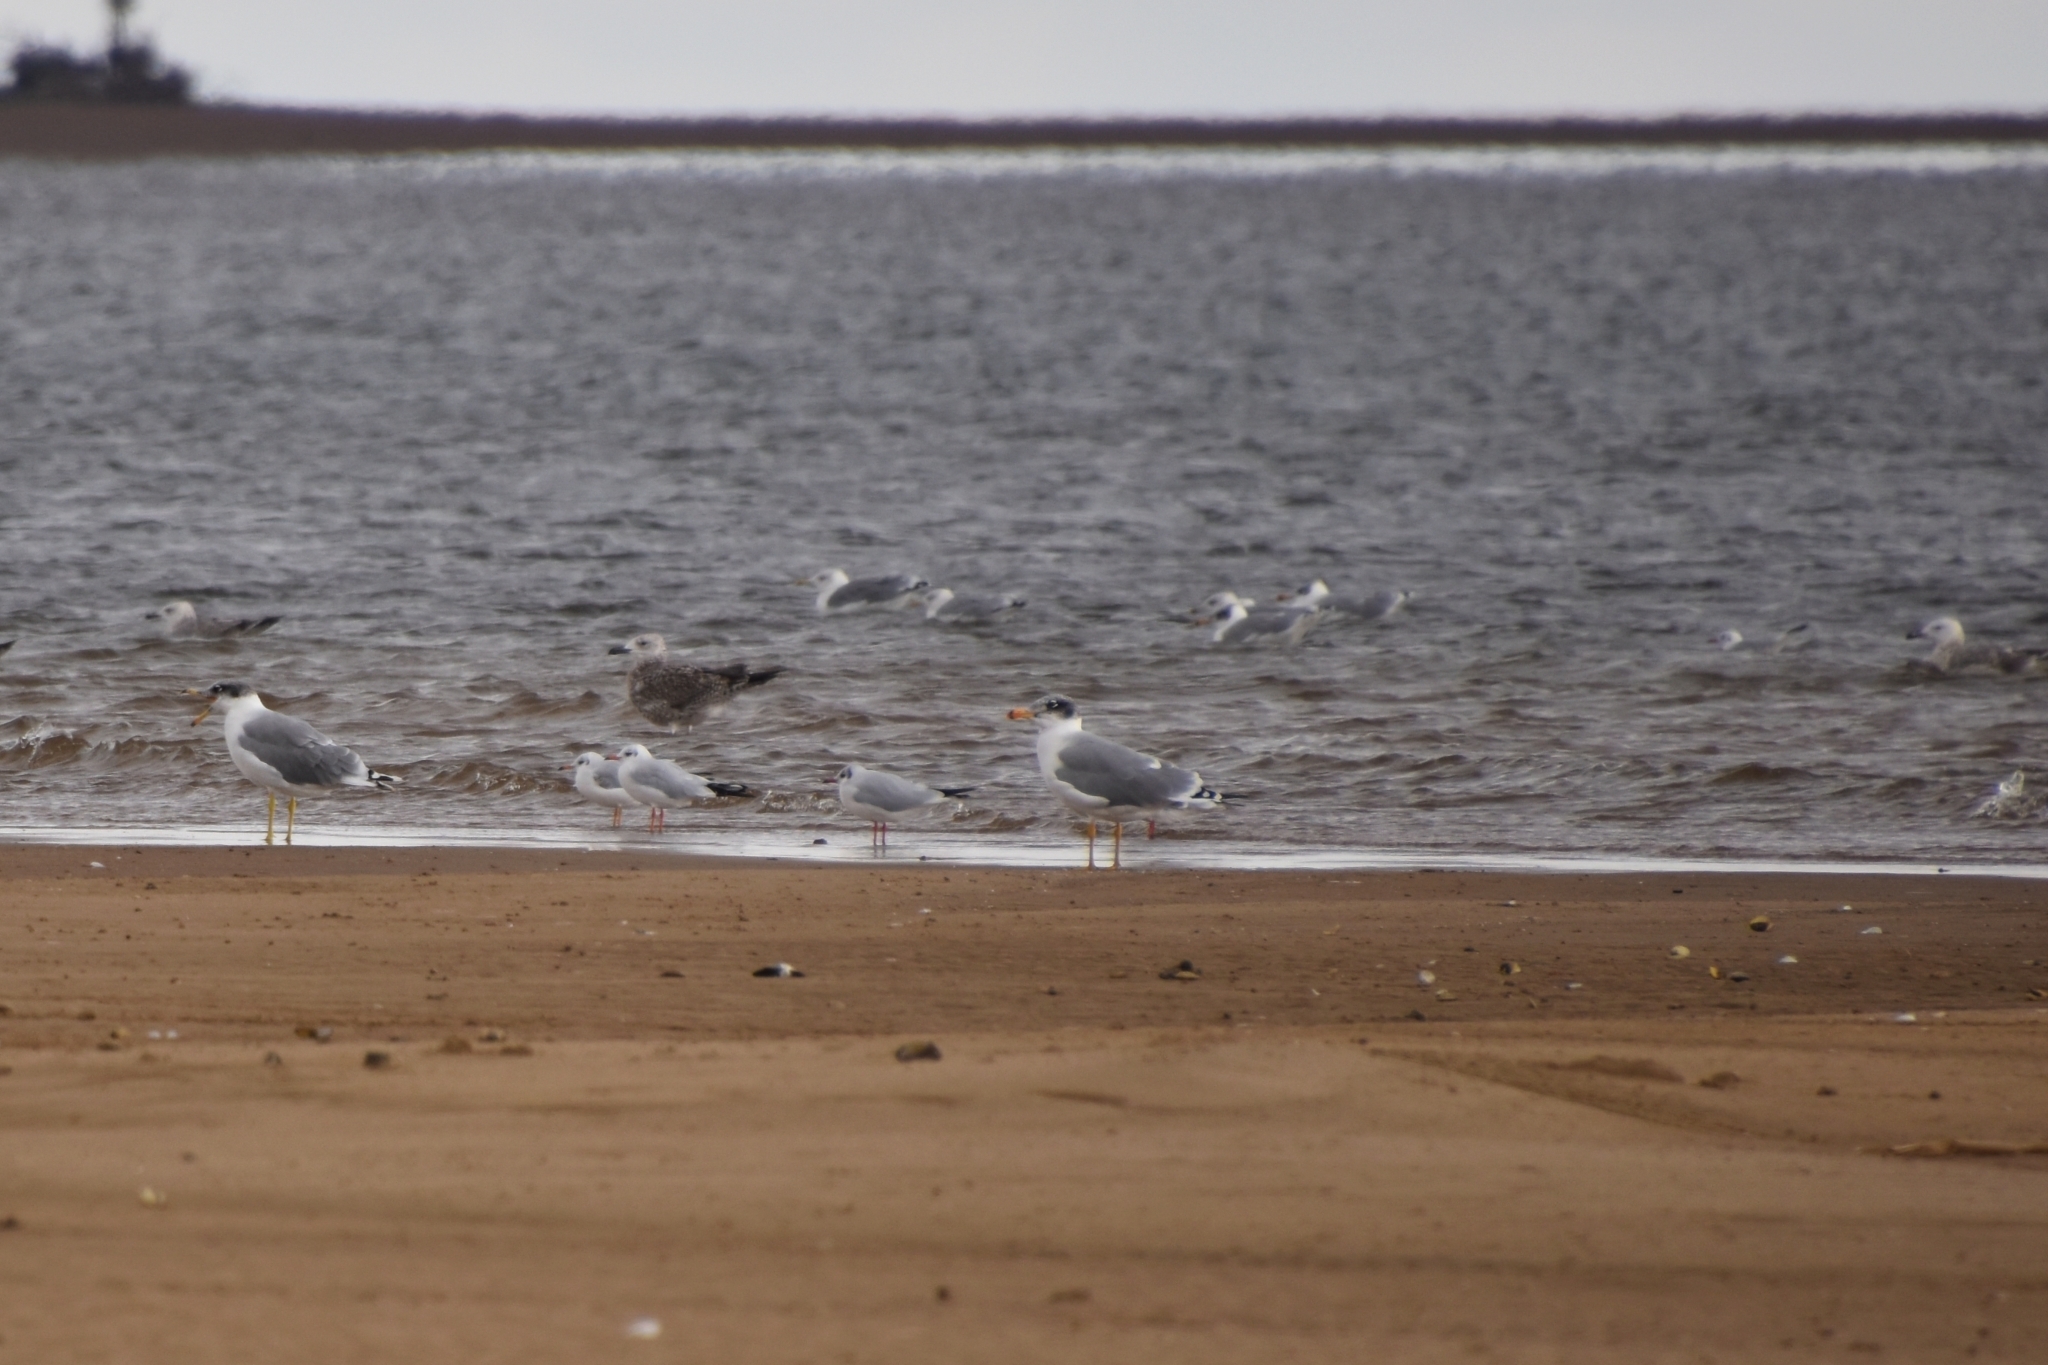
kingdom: Animalia
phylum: Chordata
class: Aves
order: Charadriiformes
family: Laridae
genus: Ichthyaetus
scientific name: Ichthyaetus ichthyaetus
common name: Pallas's gull
